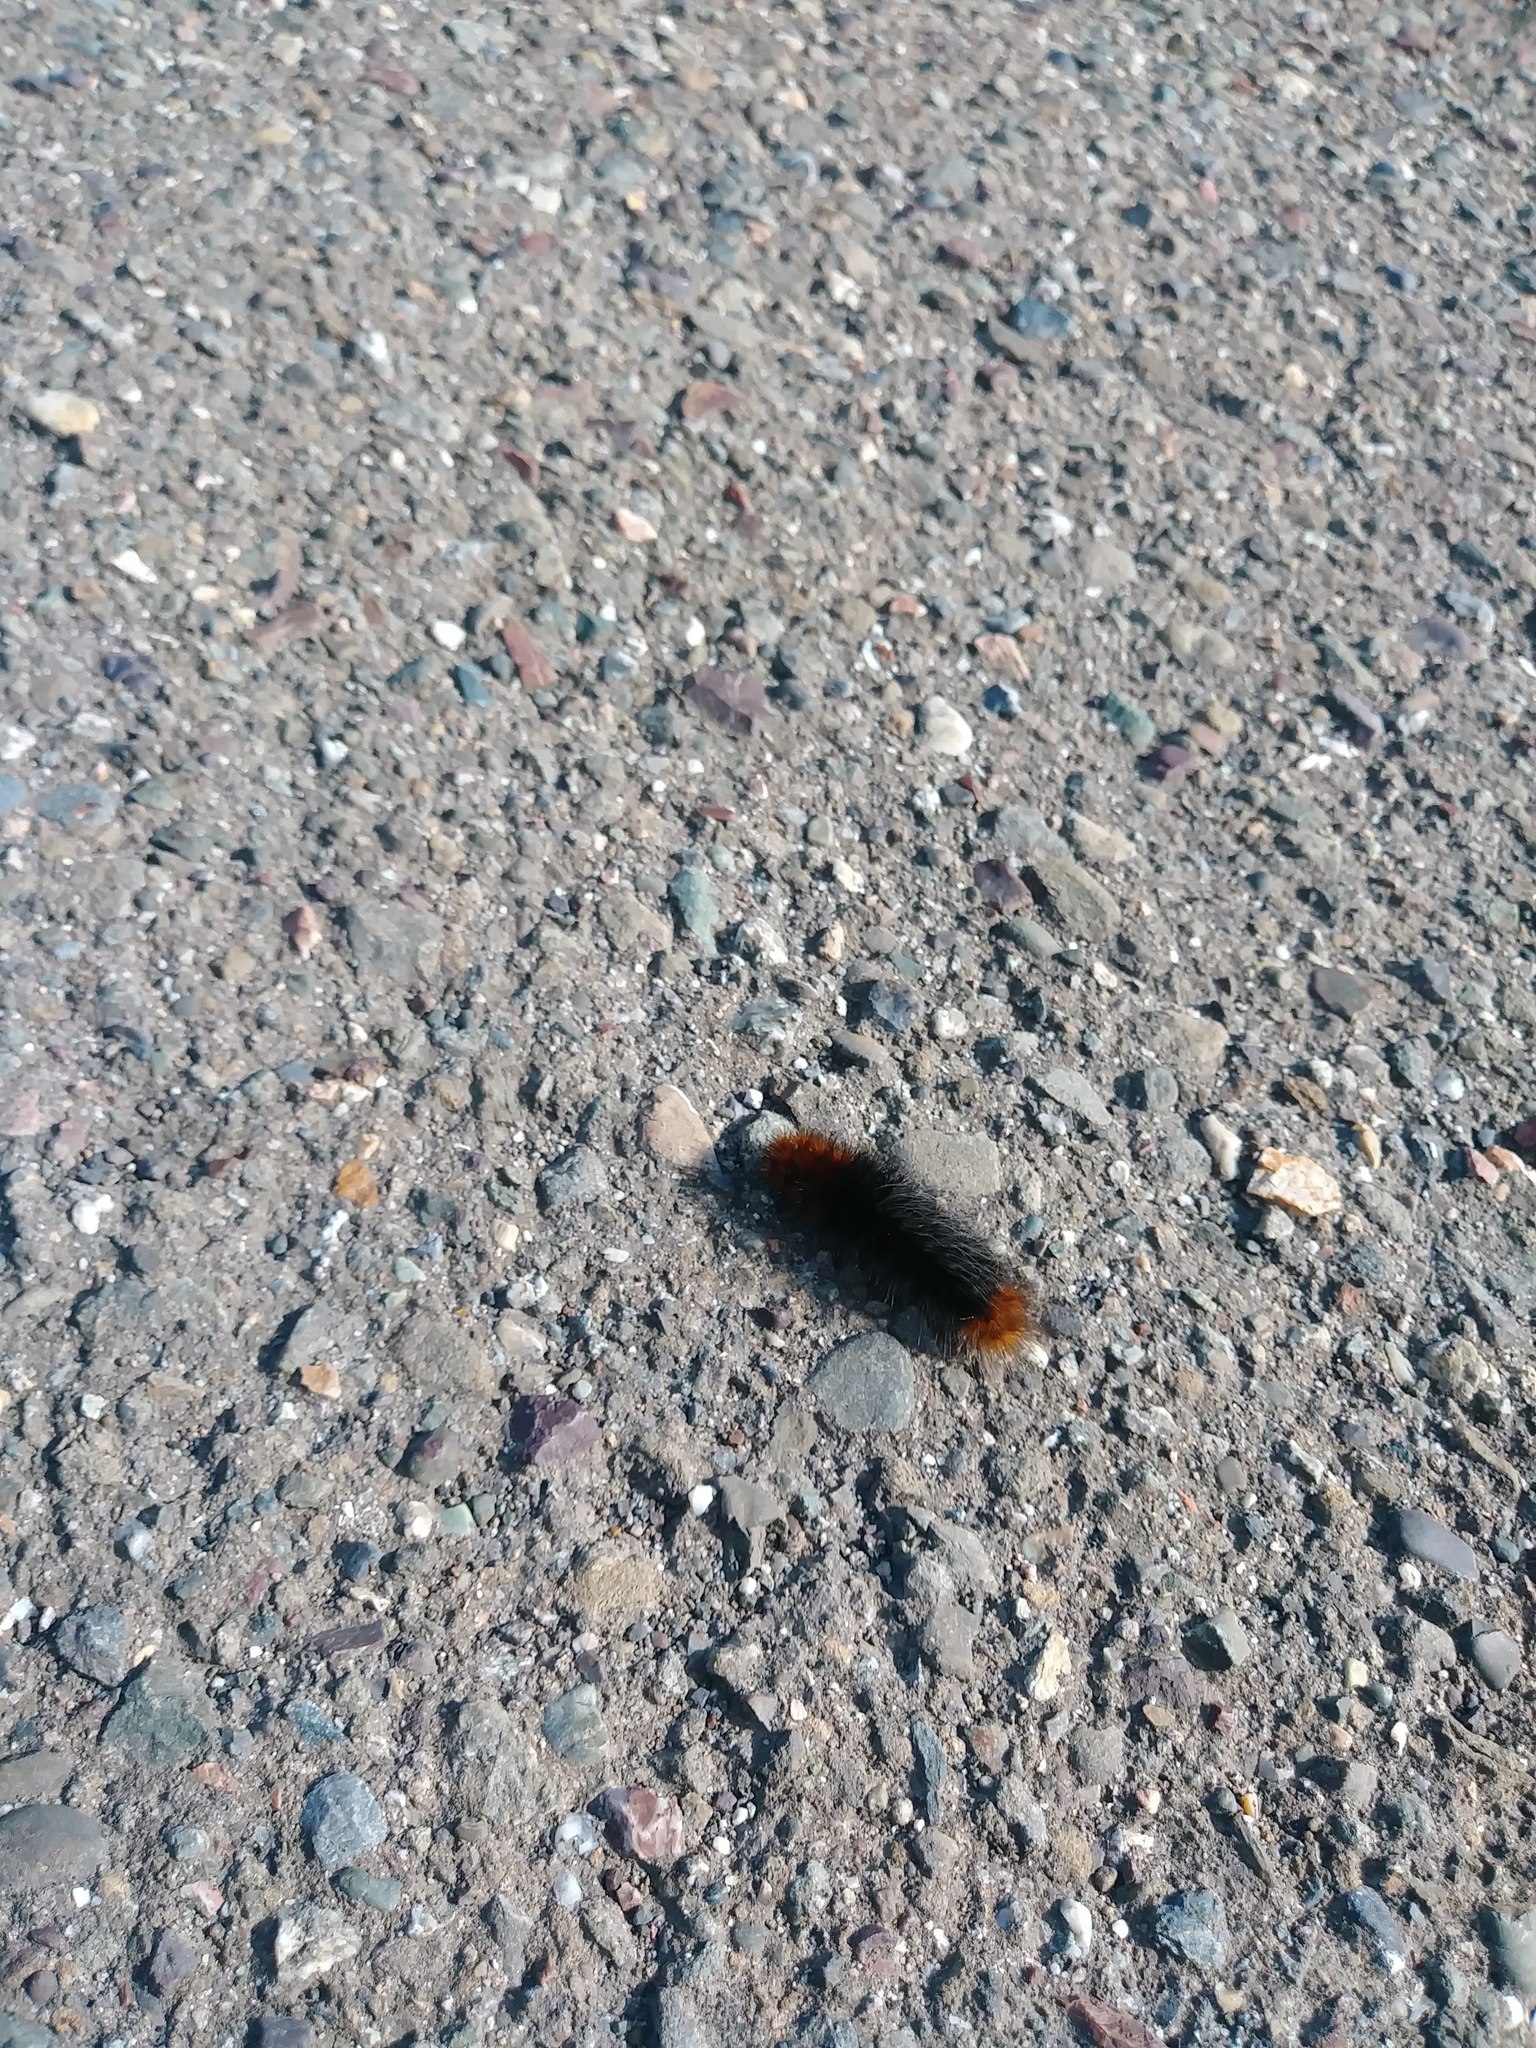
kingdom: Animalia
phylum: Arthropoda
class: Insecta
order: Lepidoptera
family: Erebidae
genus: Arctia
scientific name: Arctia tigrina
